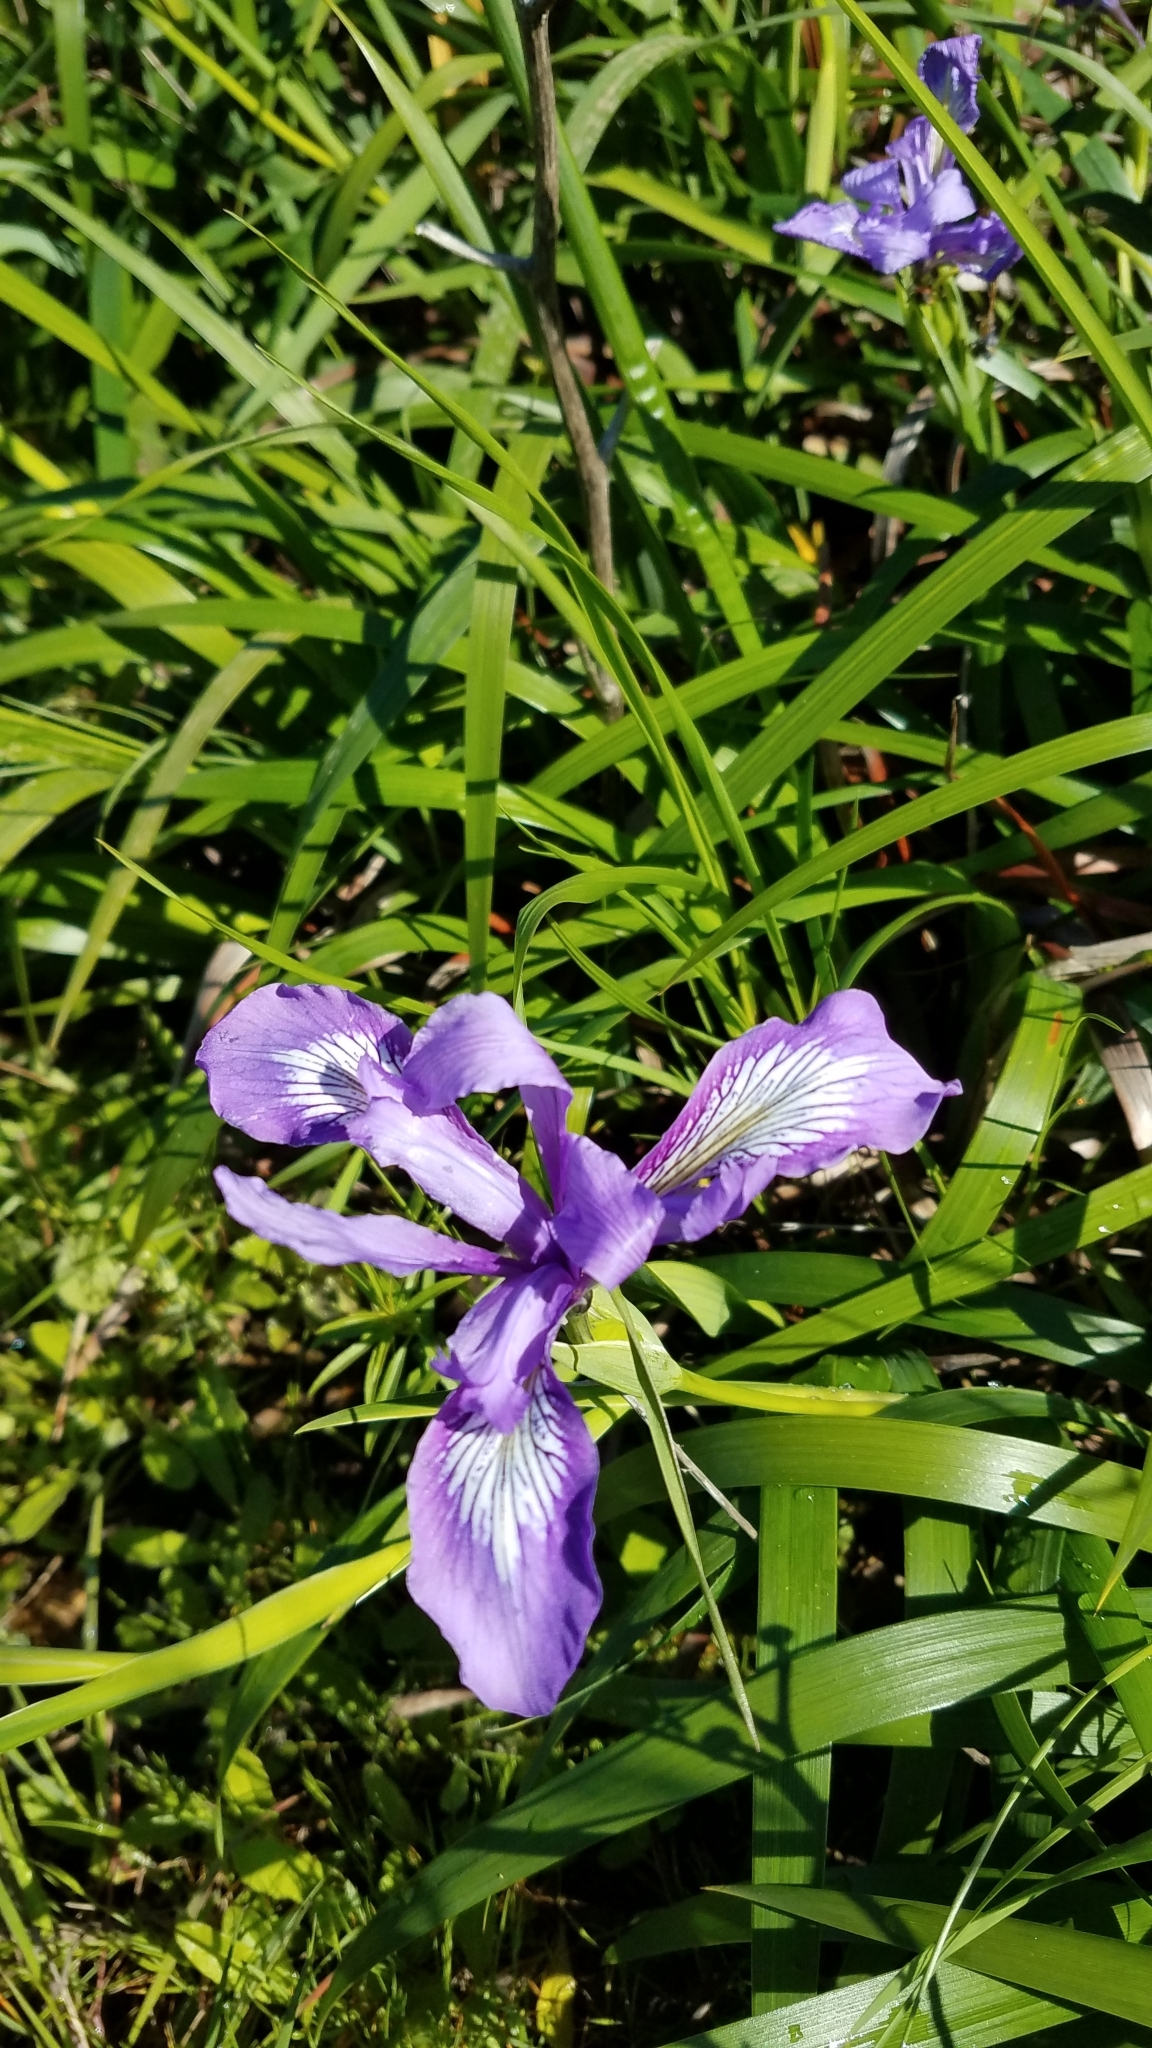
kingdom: Plantae
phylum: Tracheophyta
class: Liliopsida
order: Asparagales
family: Iridaceae
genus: Iris
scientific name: Iris douglasiana
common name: Marin iris
